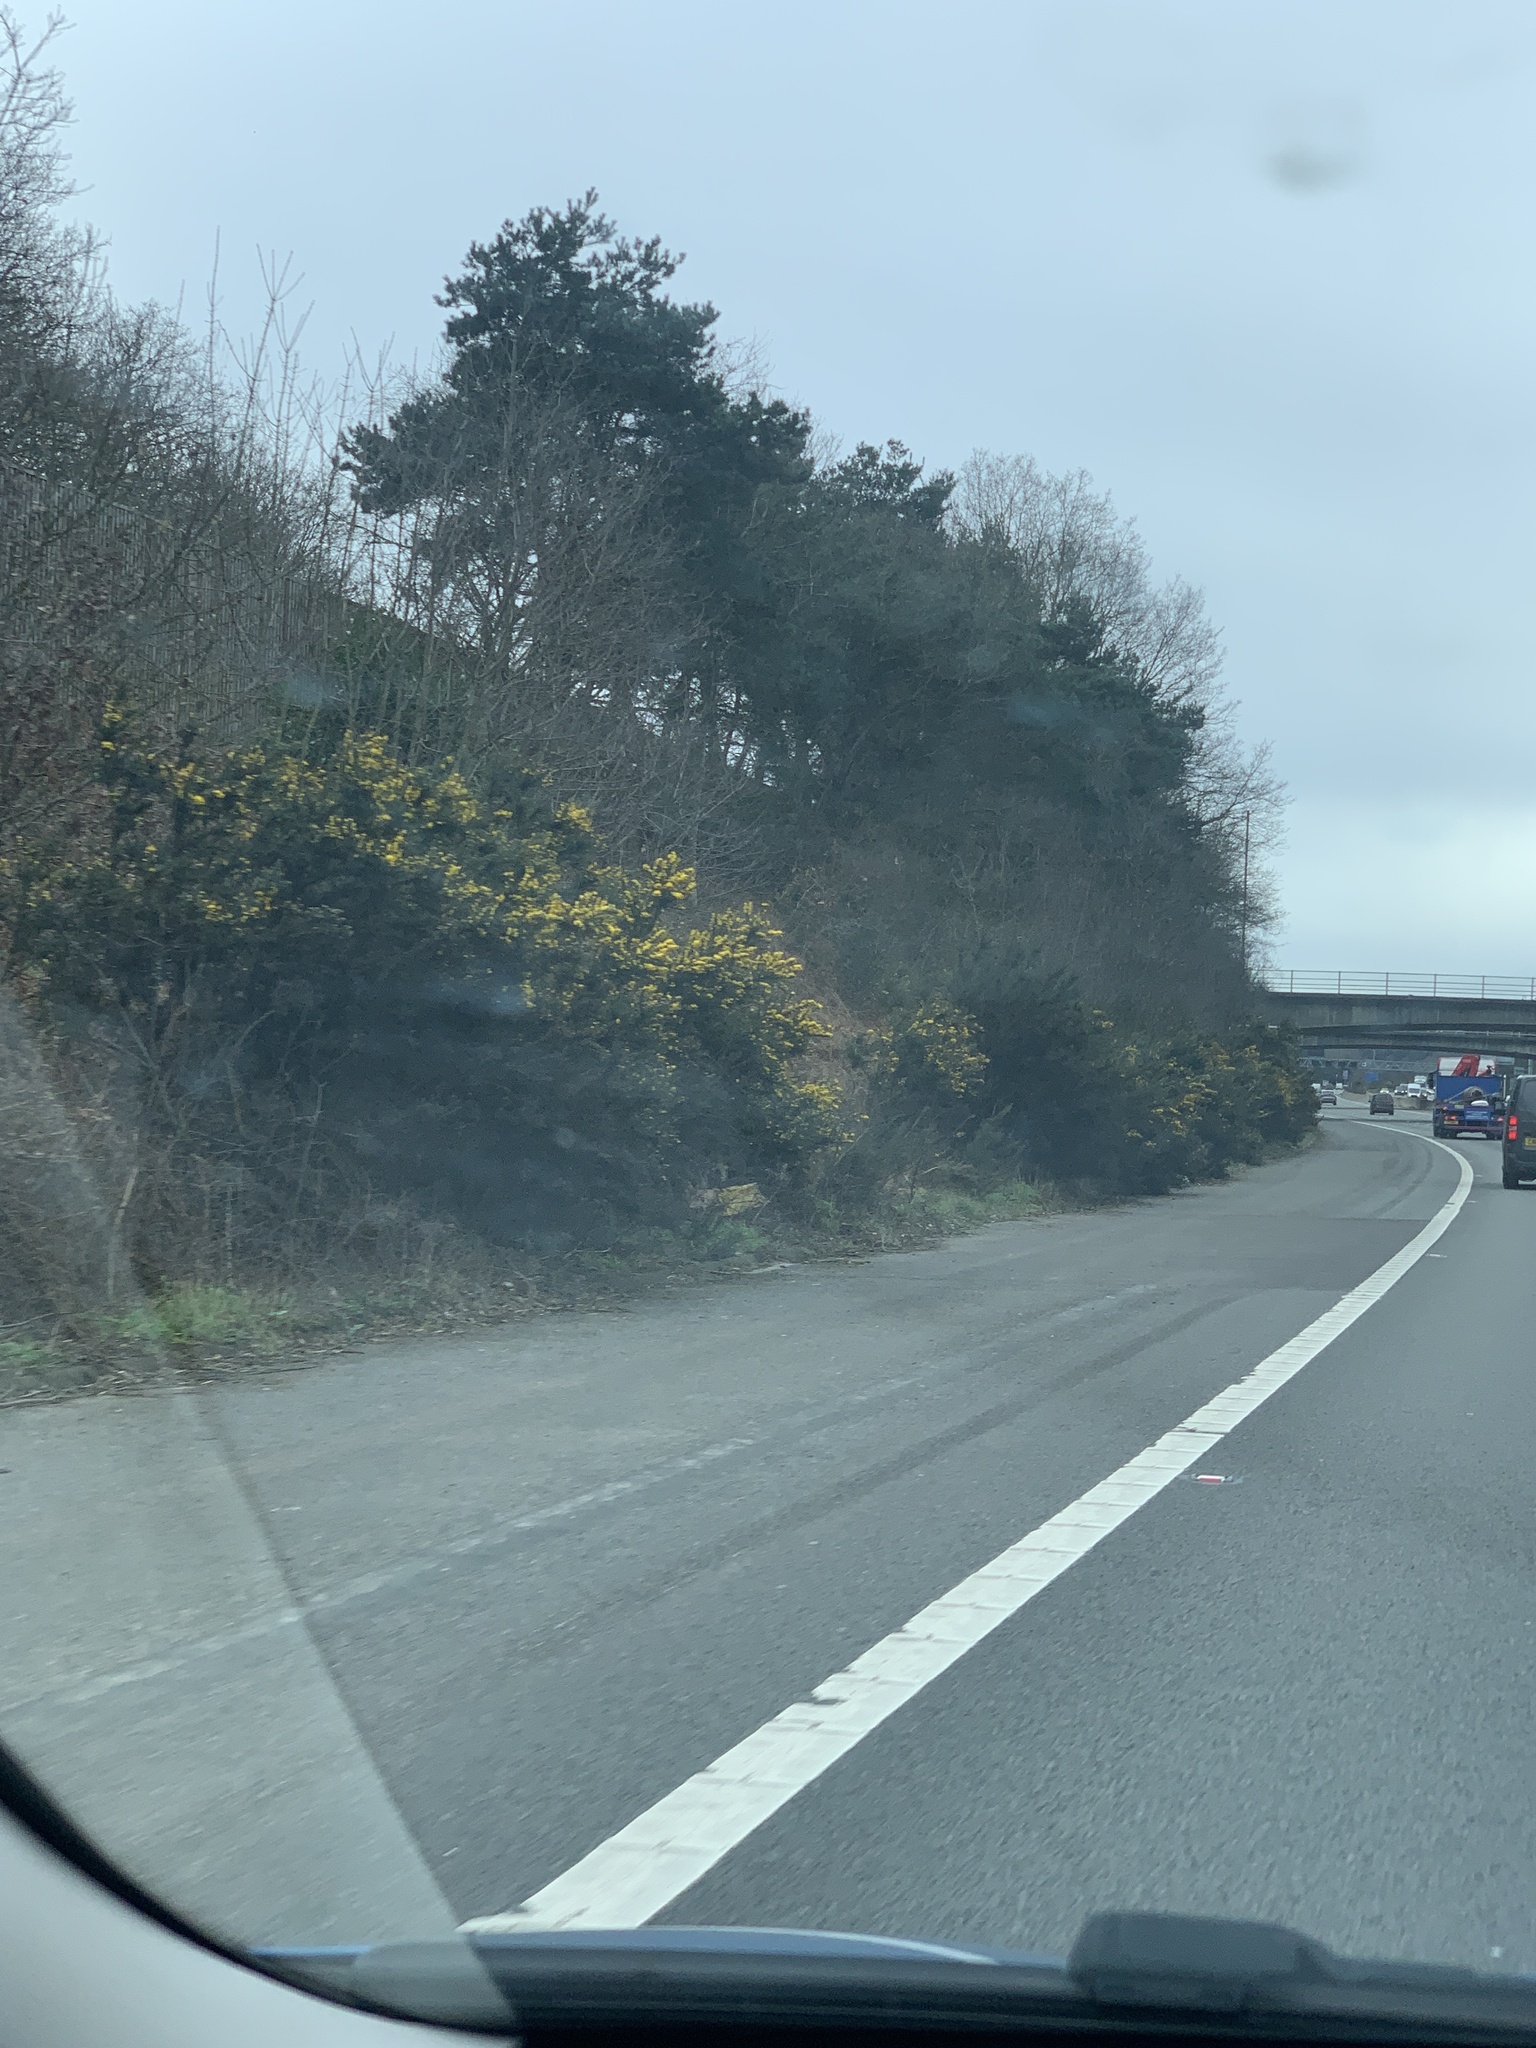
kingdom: Plantae
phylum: Tracheophyta
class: Magnoliopsida
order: Fabales
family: Fabaceae
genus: Ulex
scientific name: Ulex europaeus
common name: Common gorse
